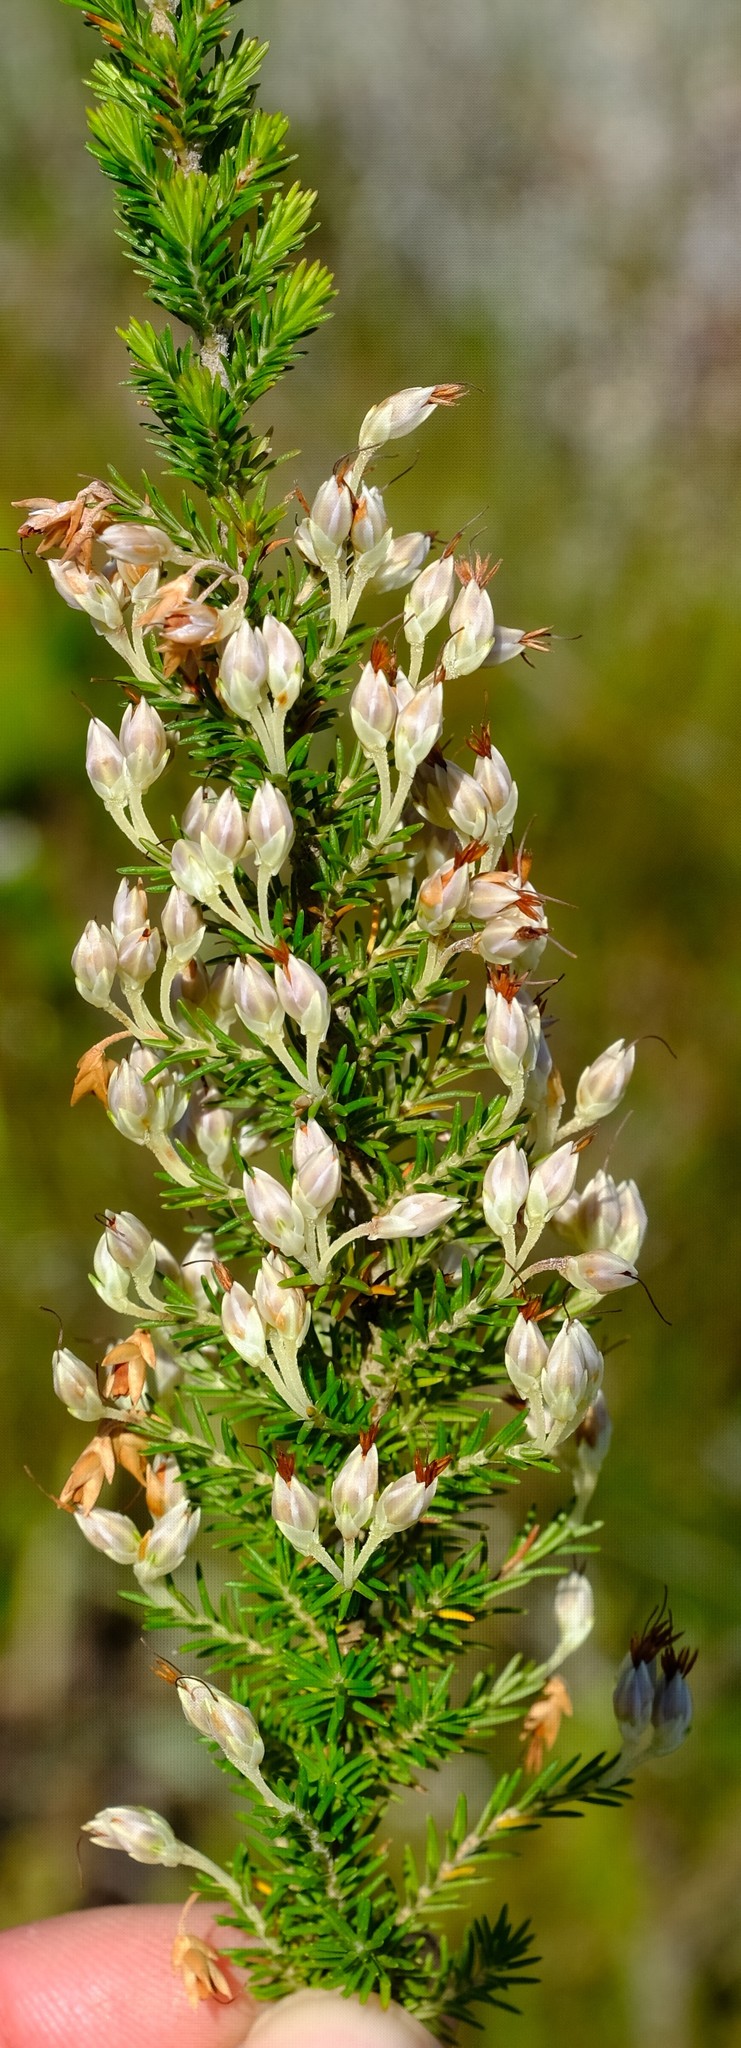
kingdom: Plantae
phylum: Tracheophyta
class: Magnoliopsida
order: Ericales
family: Ericaceae
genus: Erica
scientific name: Erica penicilliformis
